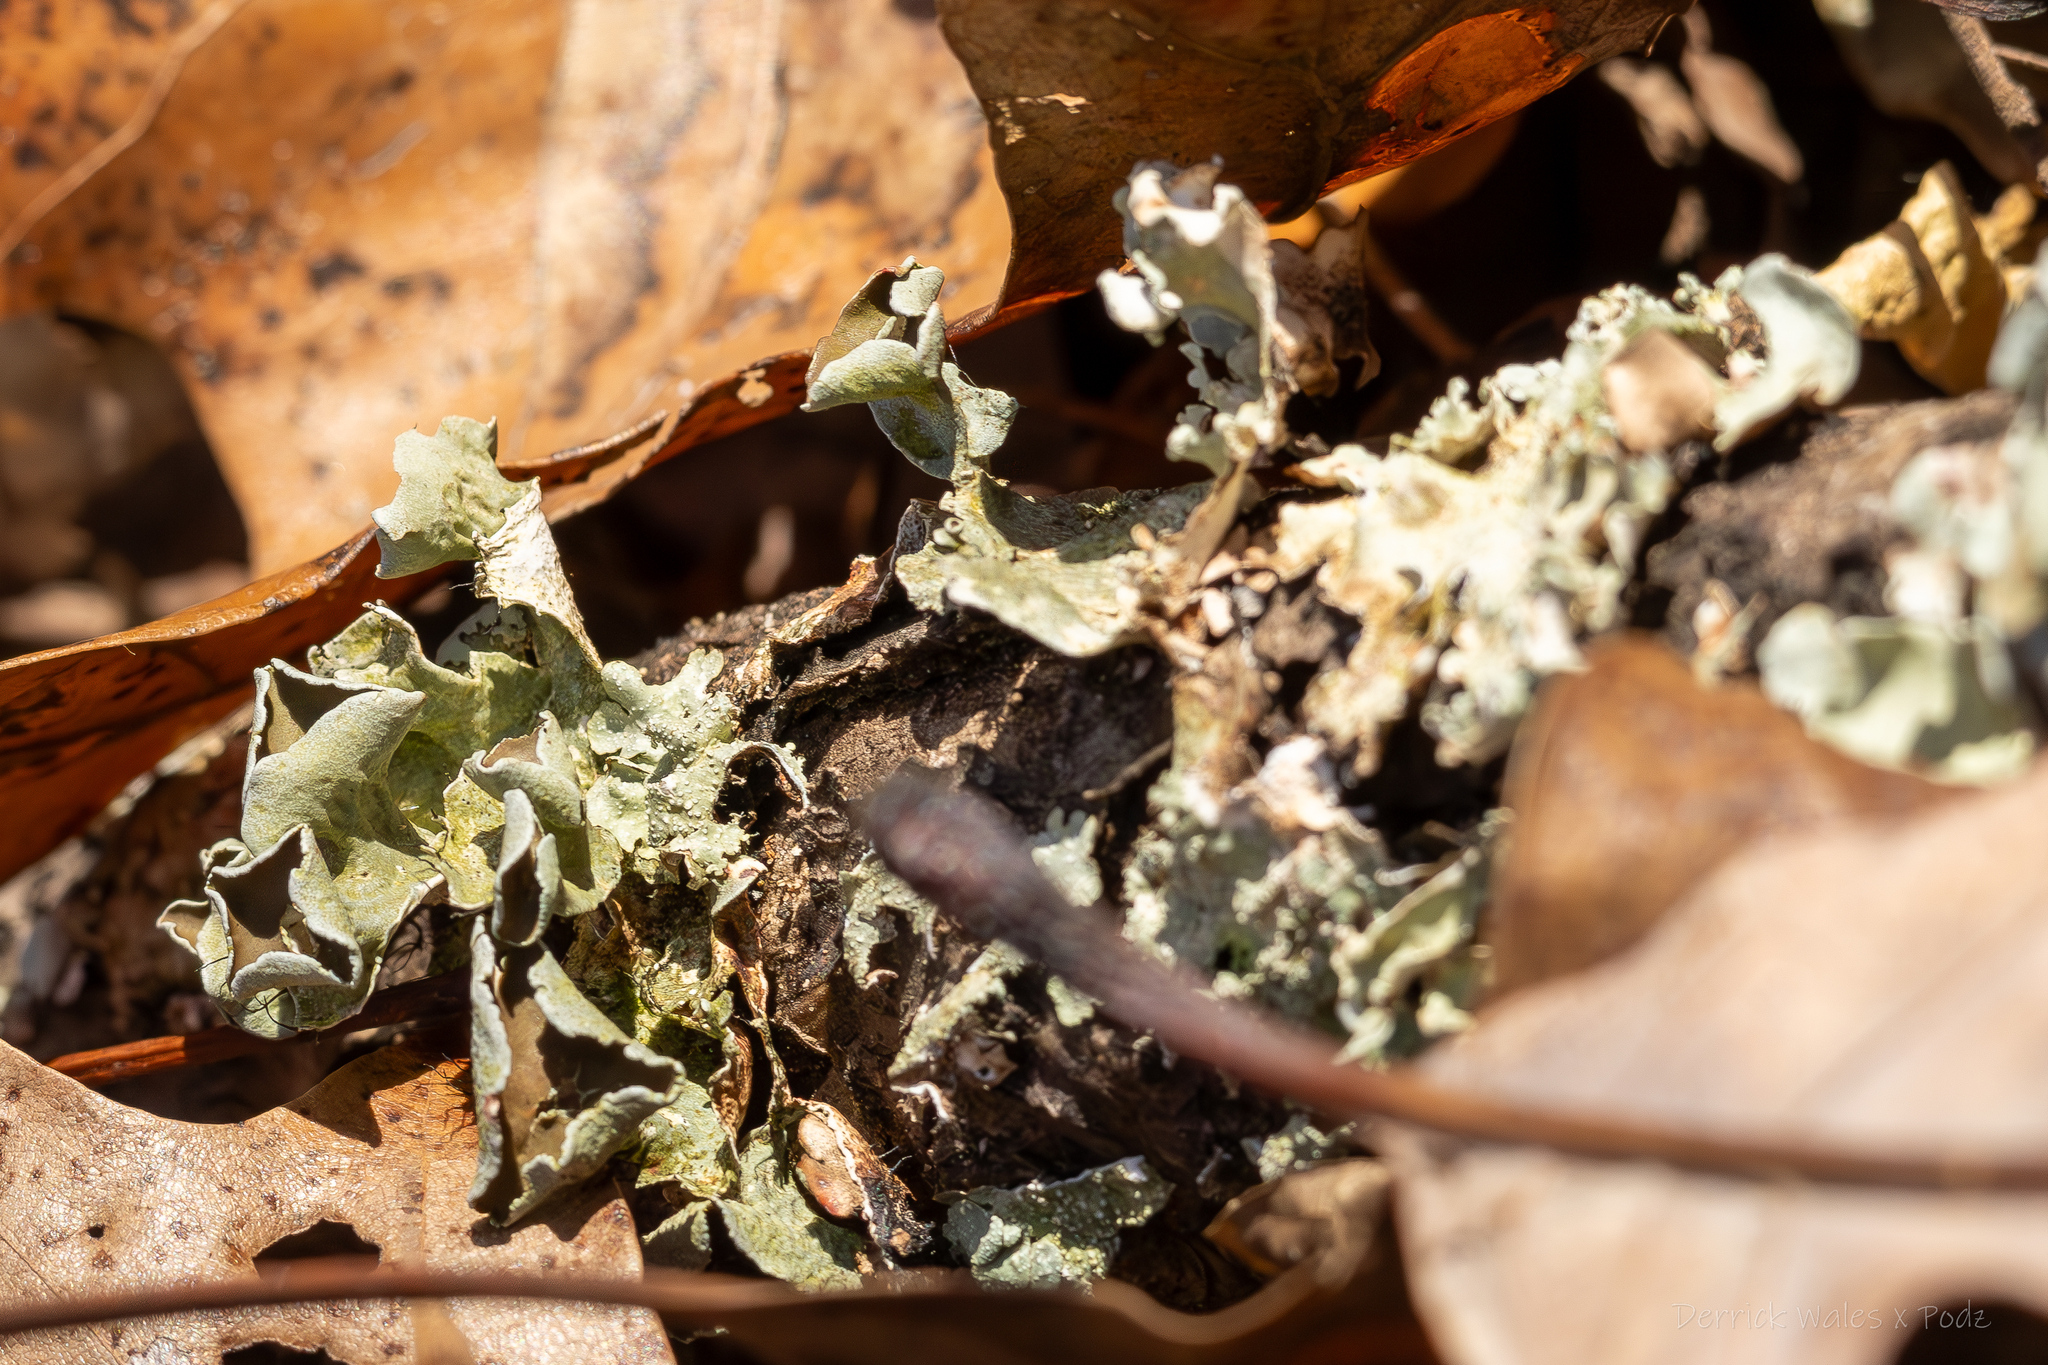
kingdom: Fungi
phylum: Ascomycota
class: Lecanoromycetes
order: Lecanorales
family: Parmeliaceae
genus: Parmotrema
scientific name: Parmotrema perforatum
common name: Perforated ruffle lichen
